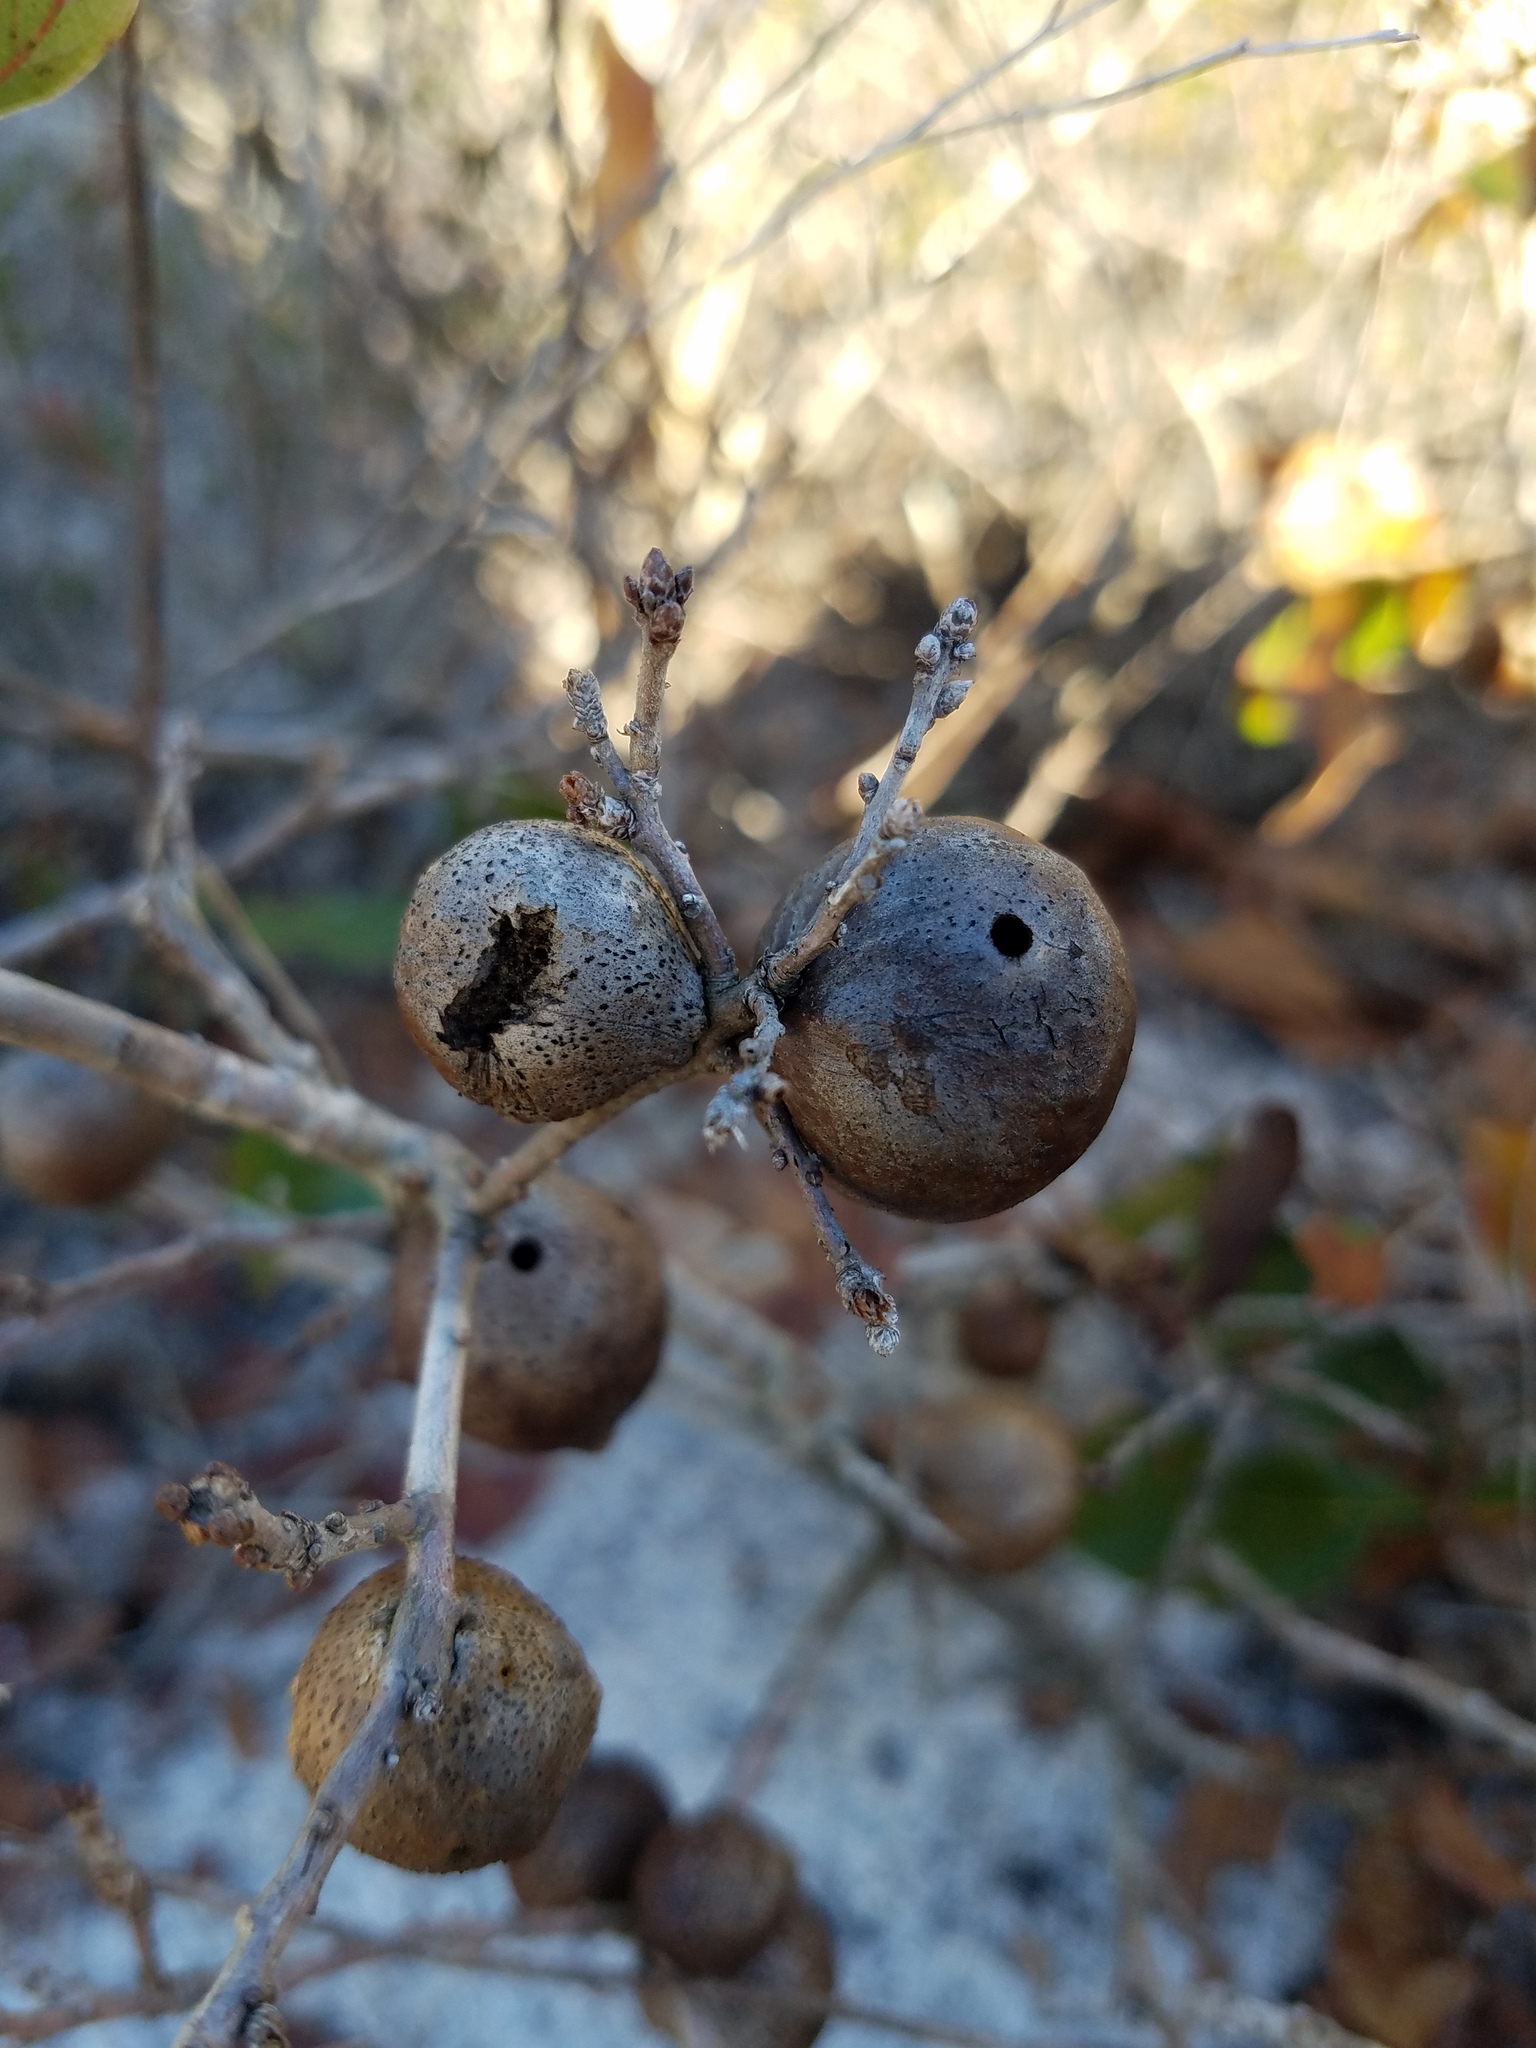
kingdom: Animalia
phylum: Arthropoda
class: Insecta
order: Hymenoptera
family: Cynipidae
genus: Disholcaspis
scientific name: Disholcaspis
